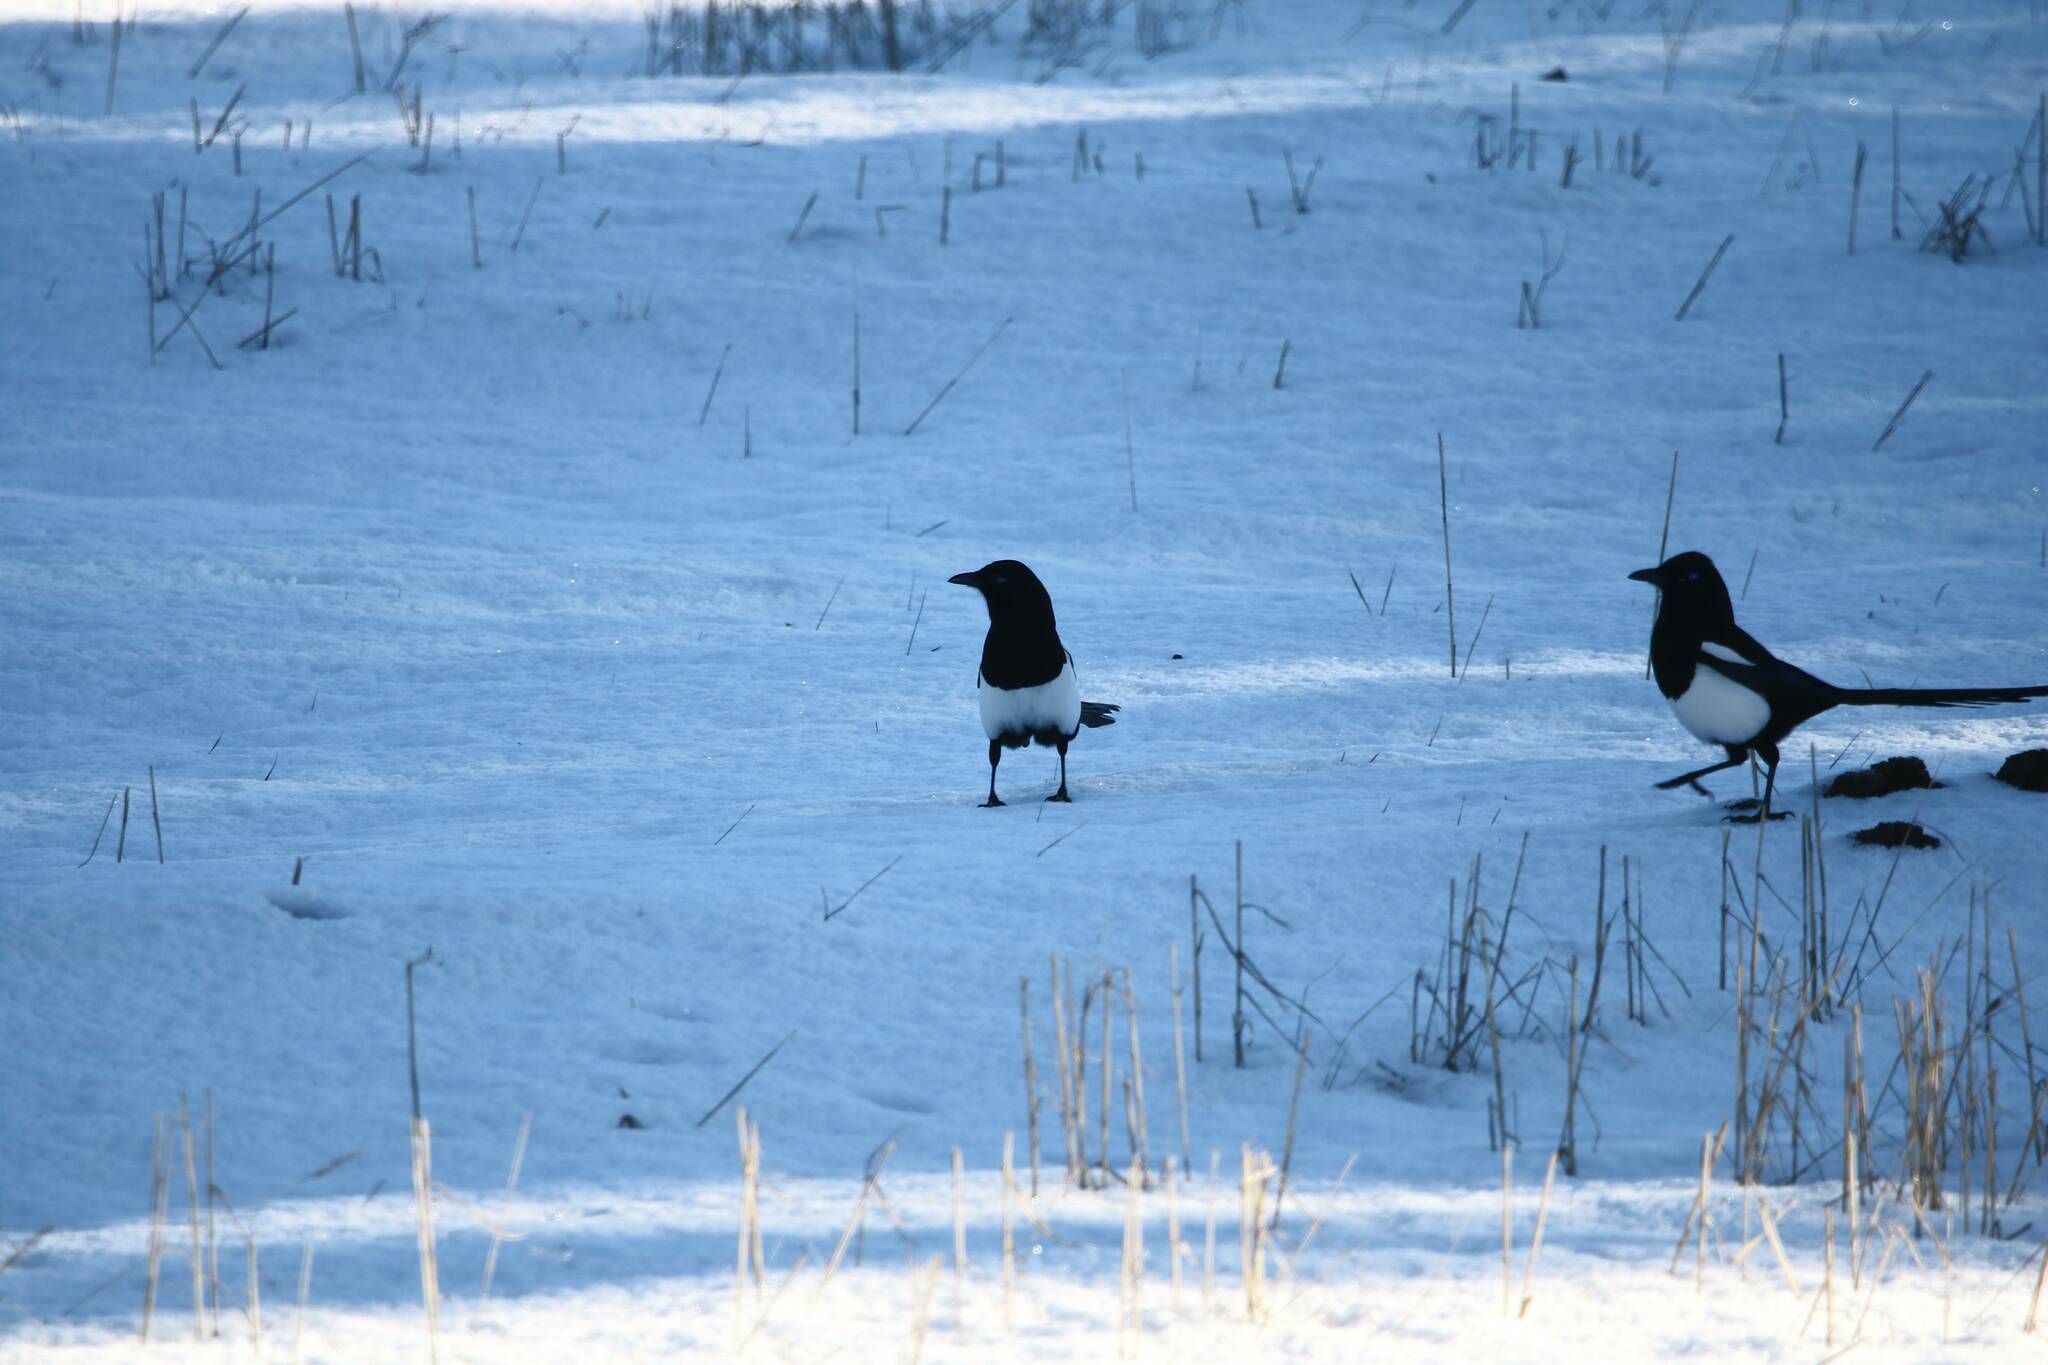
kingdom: Animalia
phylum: Chordata
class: Aves
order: Passeriformes
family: Corvidae
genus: Pica
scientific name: Pica mauritanica
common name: Maghreb magpie
